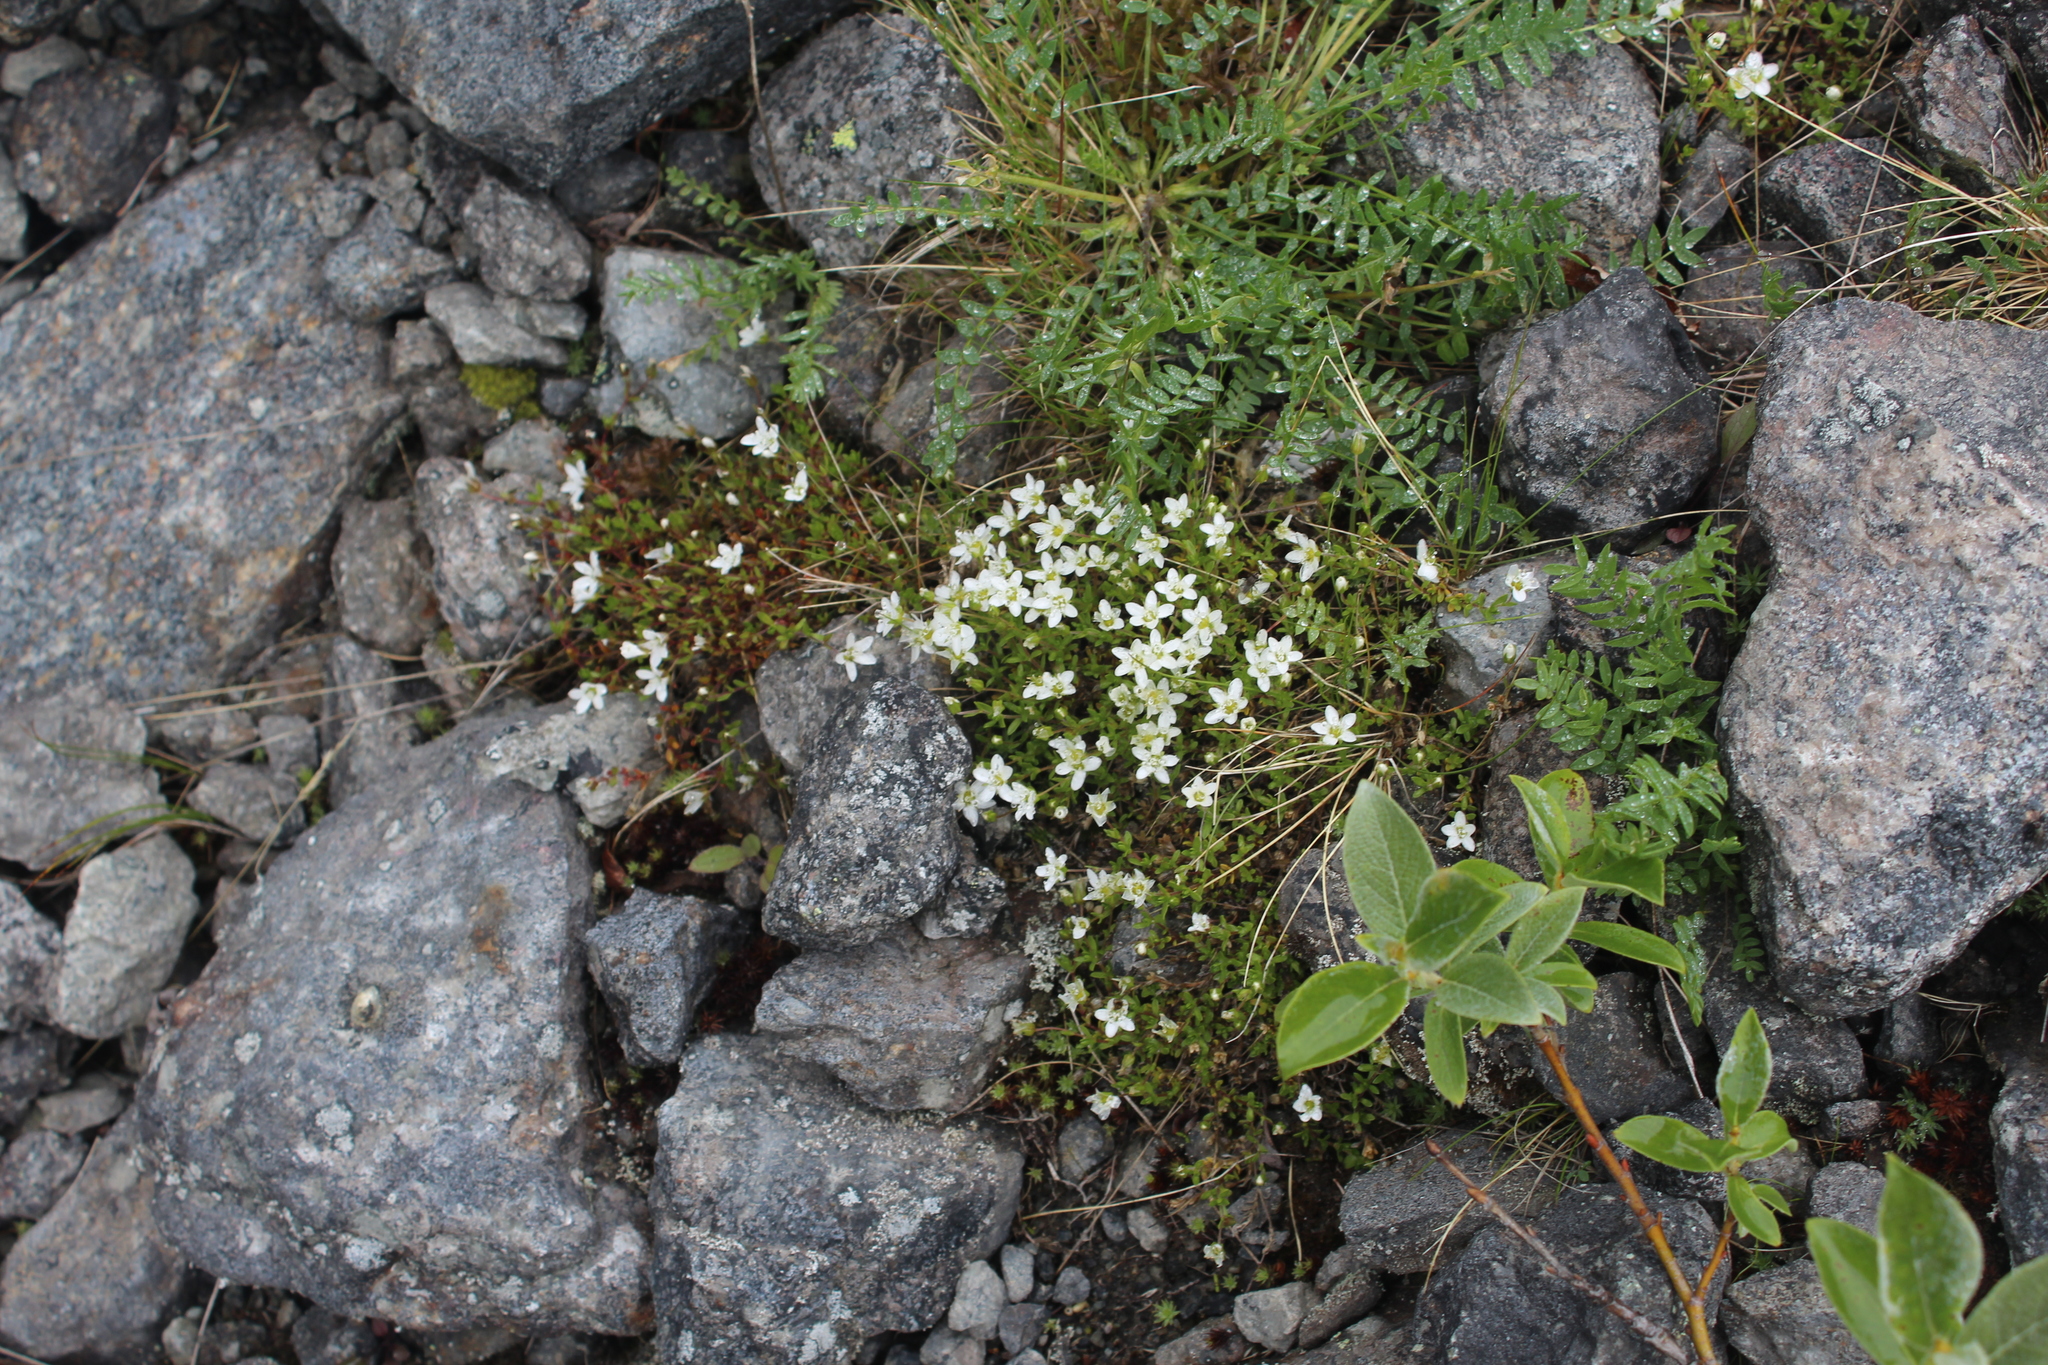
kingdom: Plantae
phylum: Tracheophyta
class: Magnoliopsida
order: Caryophyllales
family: Caryophyllaceae
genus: Arenaria
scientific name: Arenaria pseudofrigida
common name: Tundra sandwort
